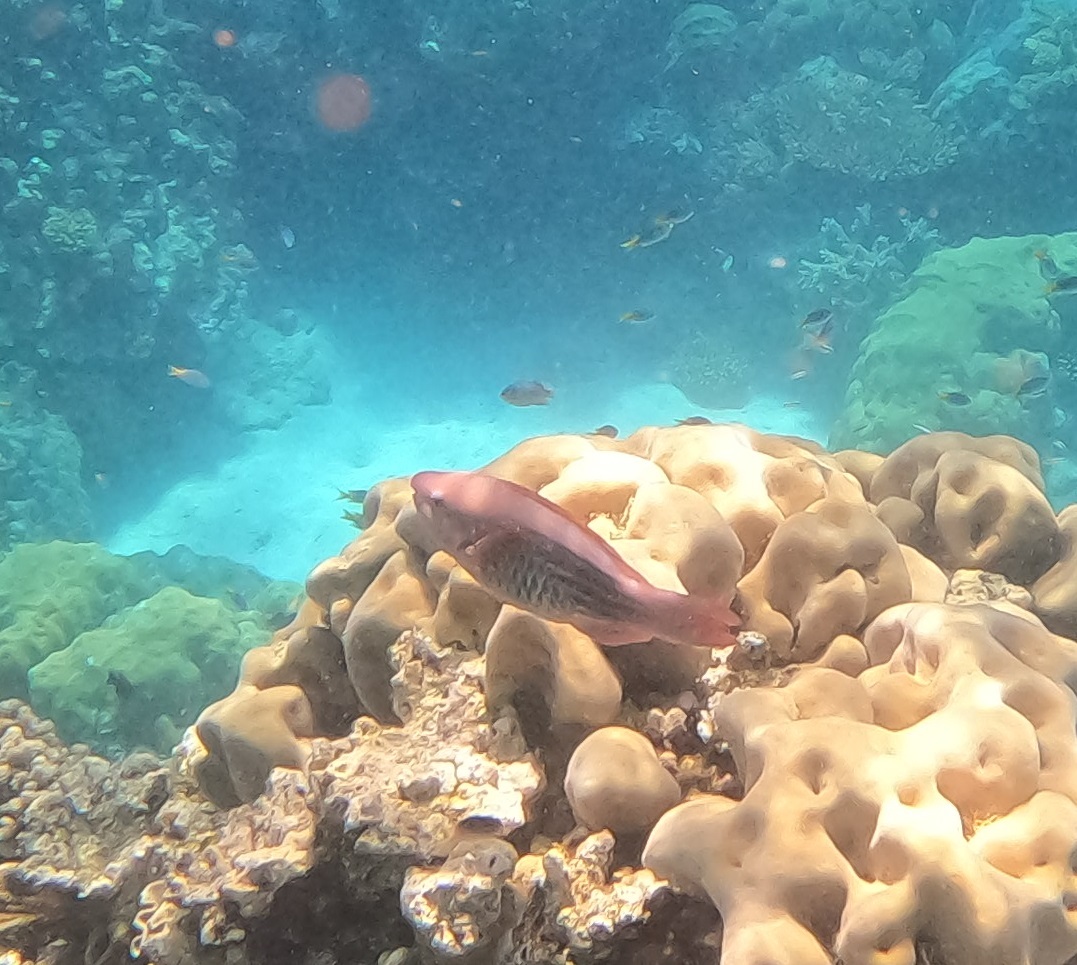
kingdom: Animalia
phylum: Chordata
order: Perciformes
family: Scaridae
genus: Scarus
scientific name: Scarus frenatus
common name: Bridled parrotfish
